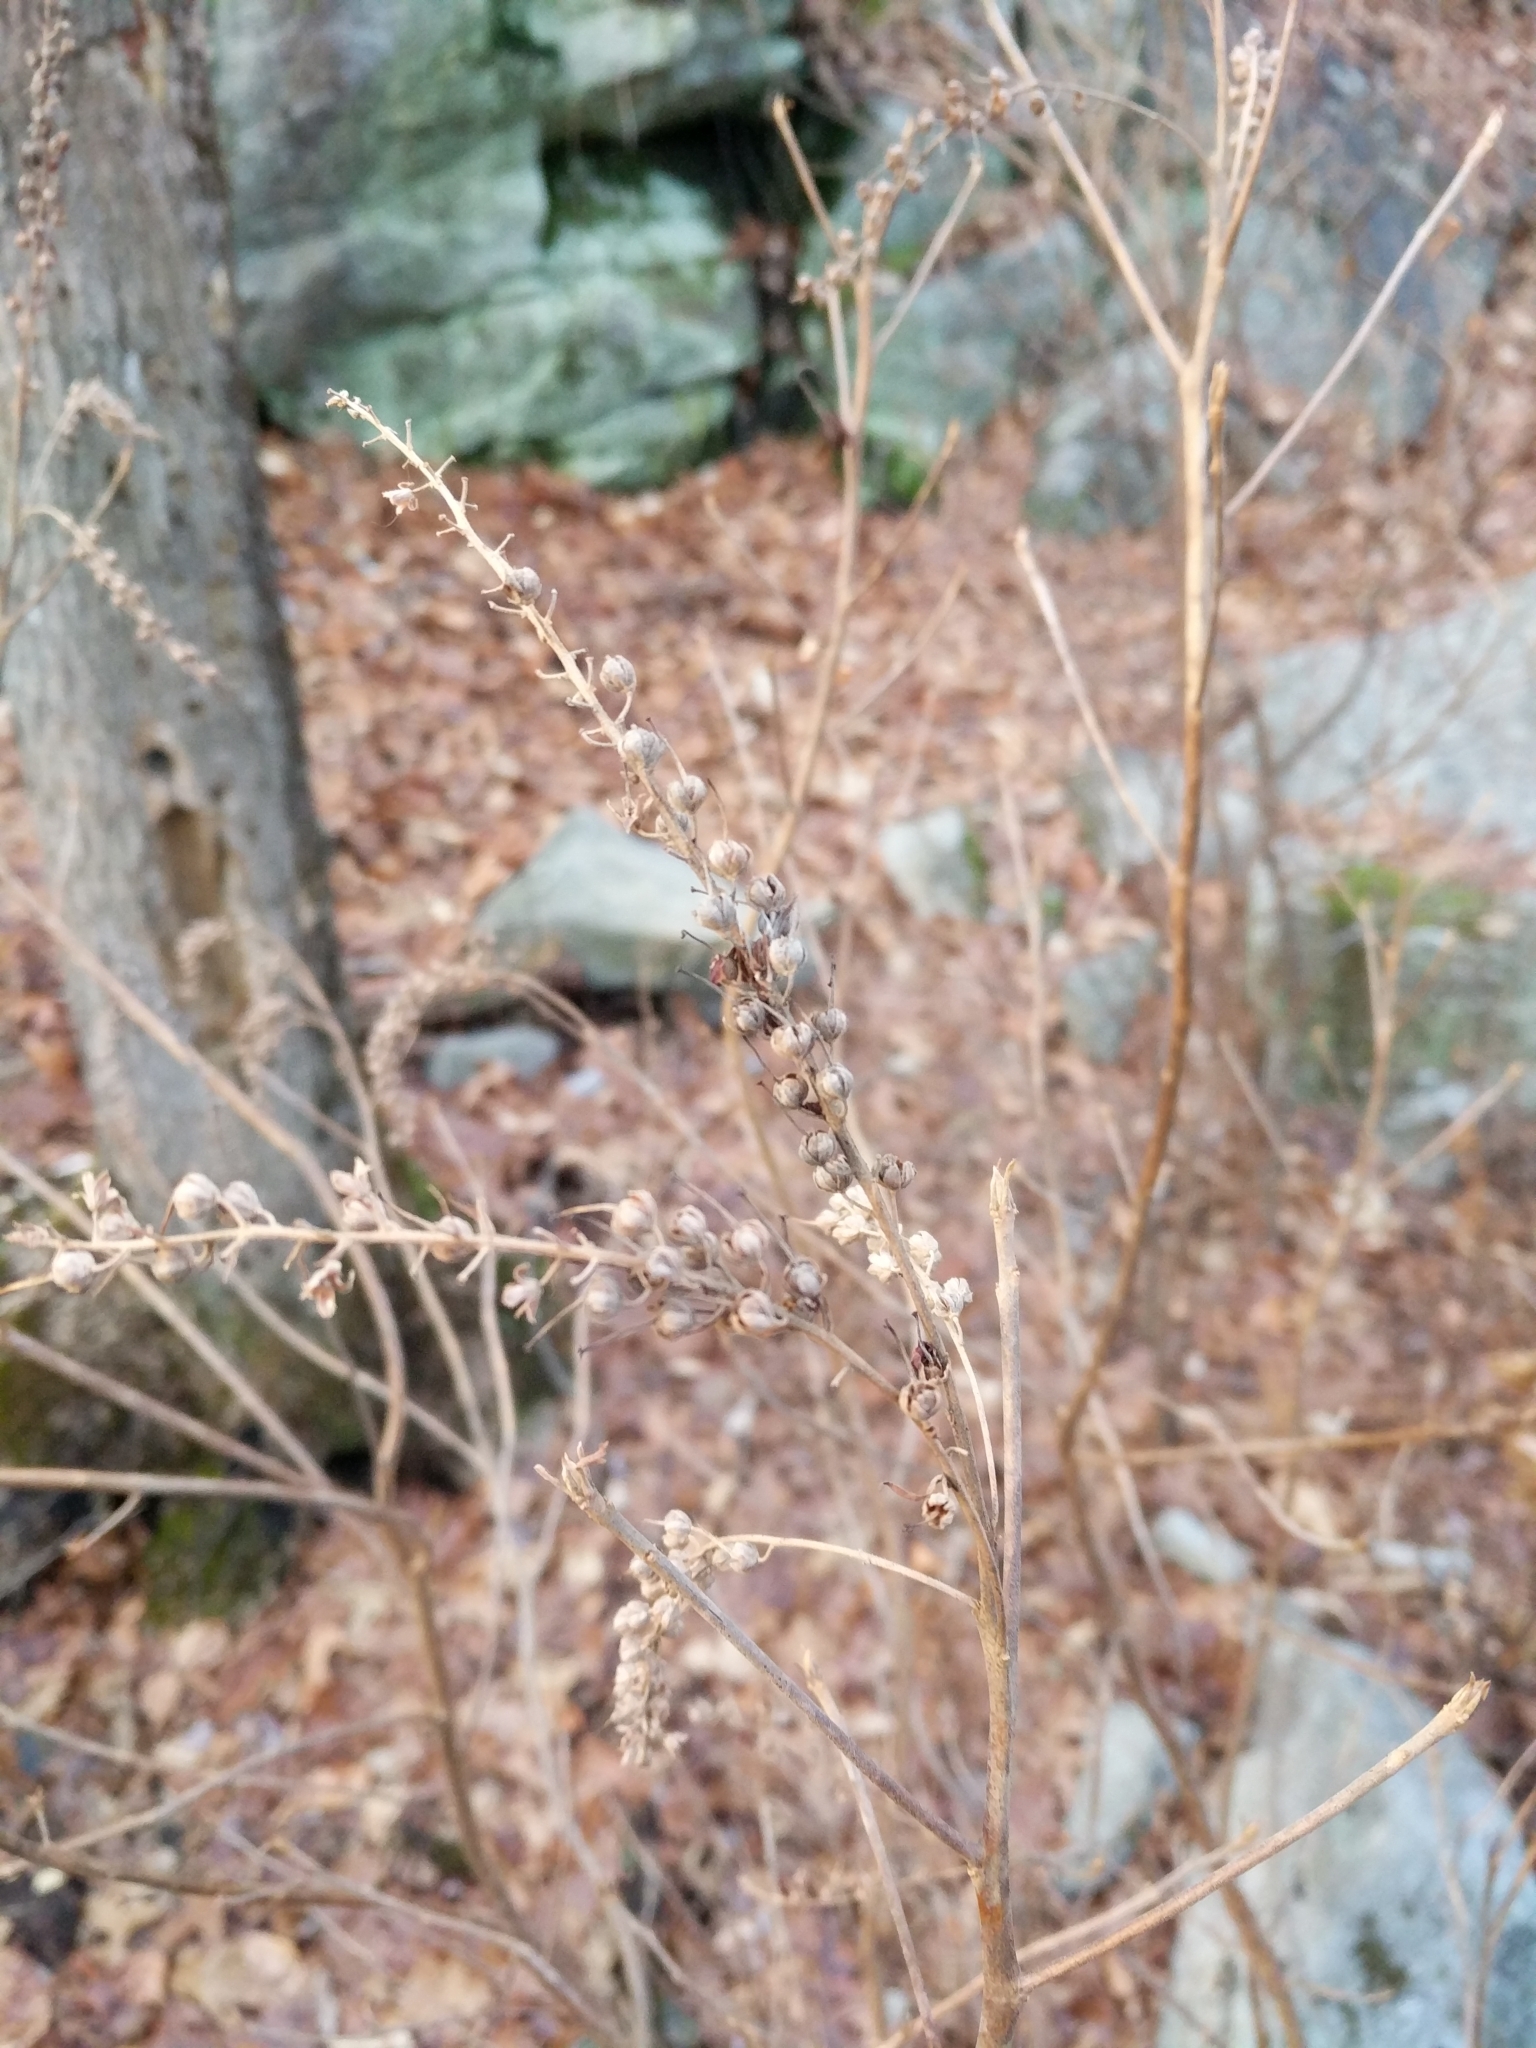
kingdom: Plantae
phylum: Tracheophyta
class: Magnoliopsida
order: Ericales
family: Clethraceae
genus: Clethra
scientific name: Clethra alnifolia
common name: Sweet pepperbush
